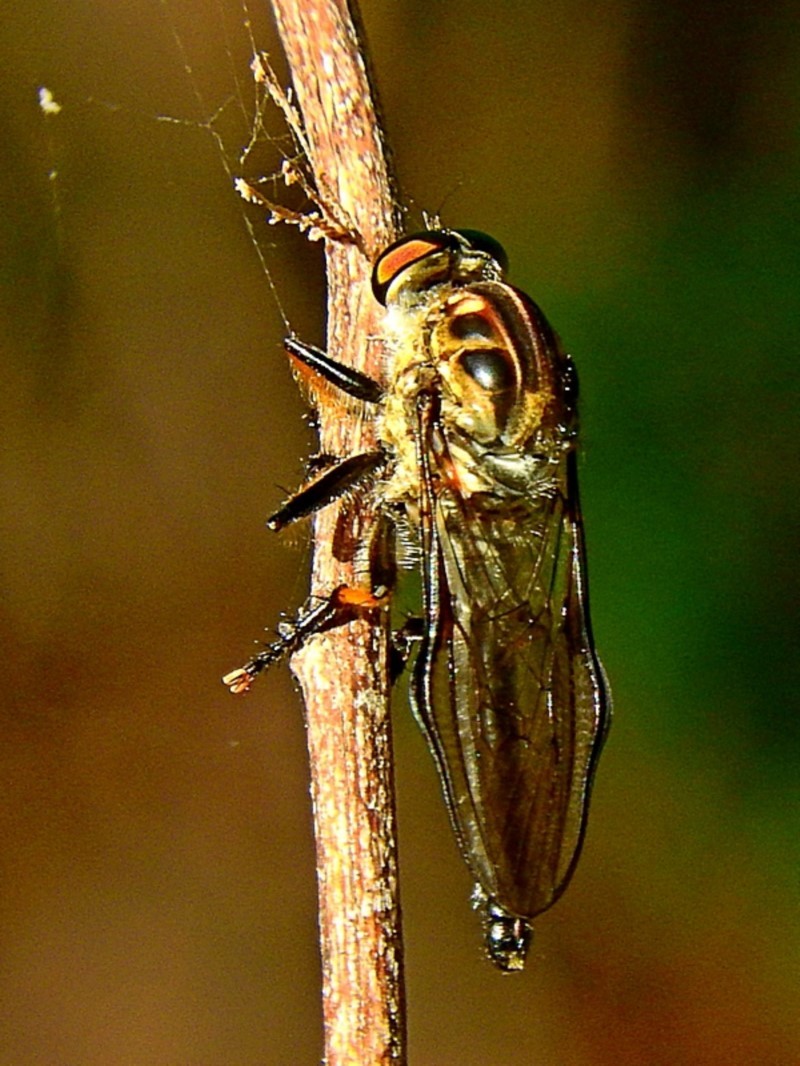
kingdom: Animalia
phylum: Arthropoda
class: Insecta
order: Diptera
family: Asilidae
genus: Ommatius
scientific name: Ommatius coeraebus
